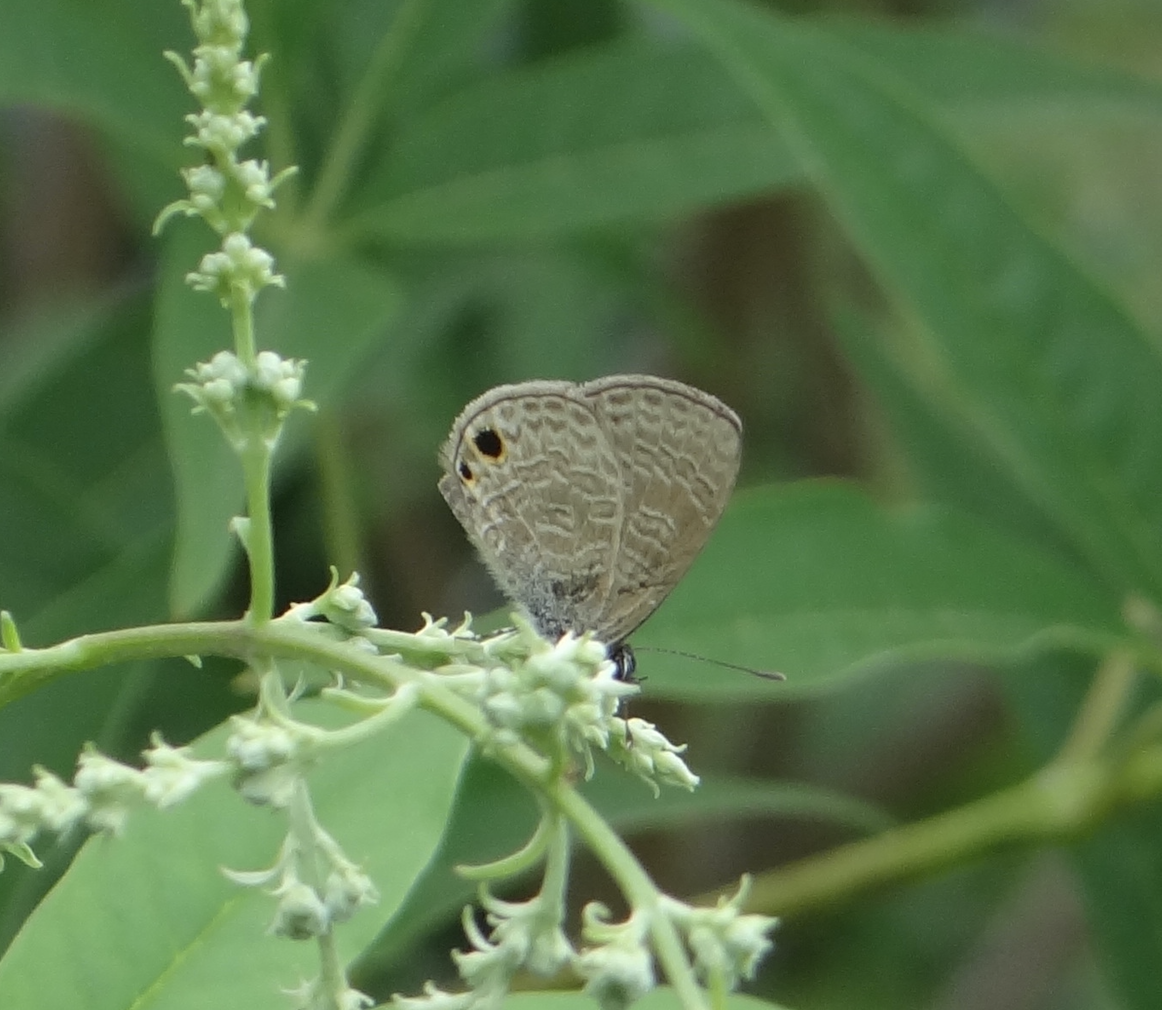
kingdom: Animalia
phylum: Arthropoda
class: Insecta
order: Lepidoptera
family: Lycaenidae
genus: Prosotas
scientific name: Prosotas dubiosa
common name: Tailless lineblue
